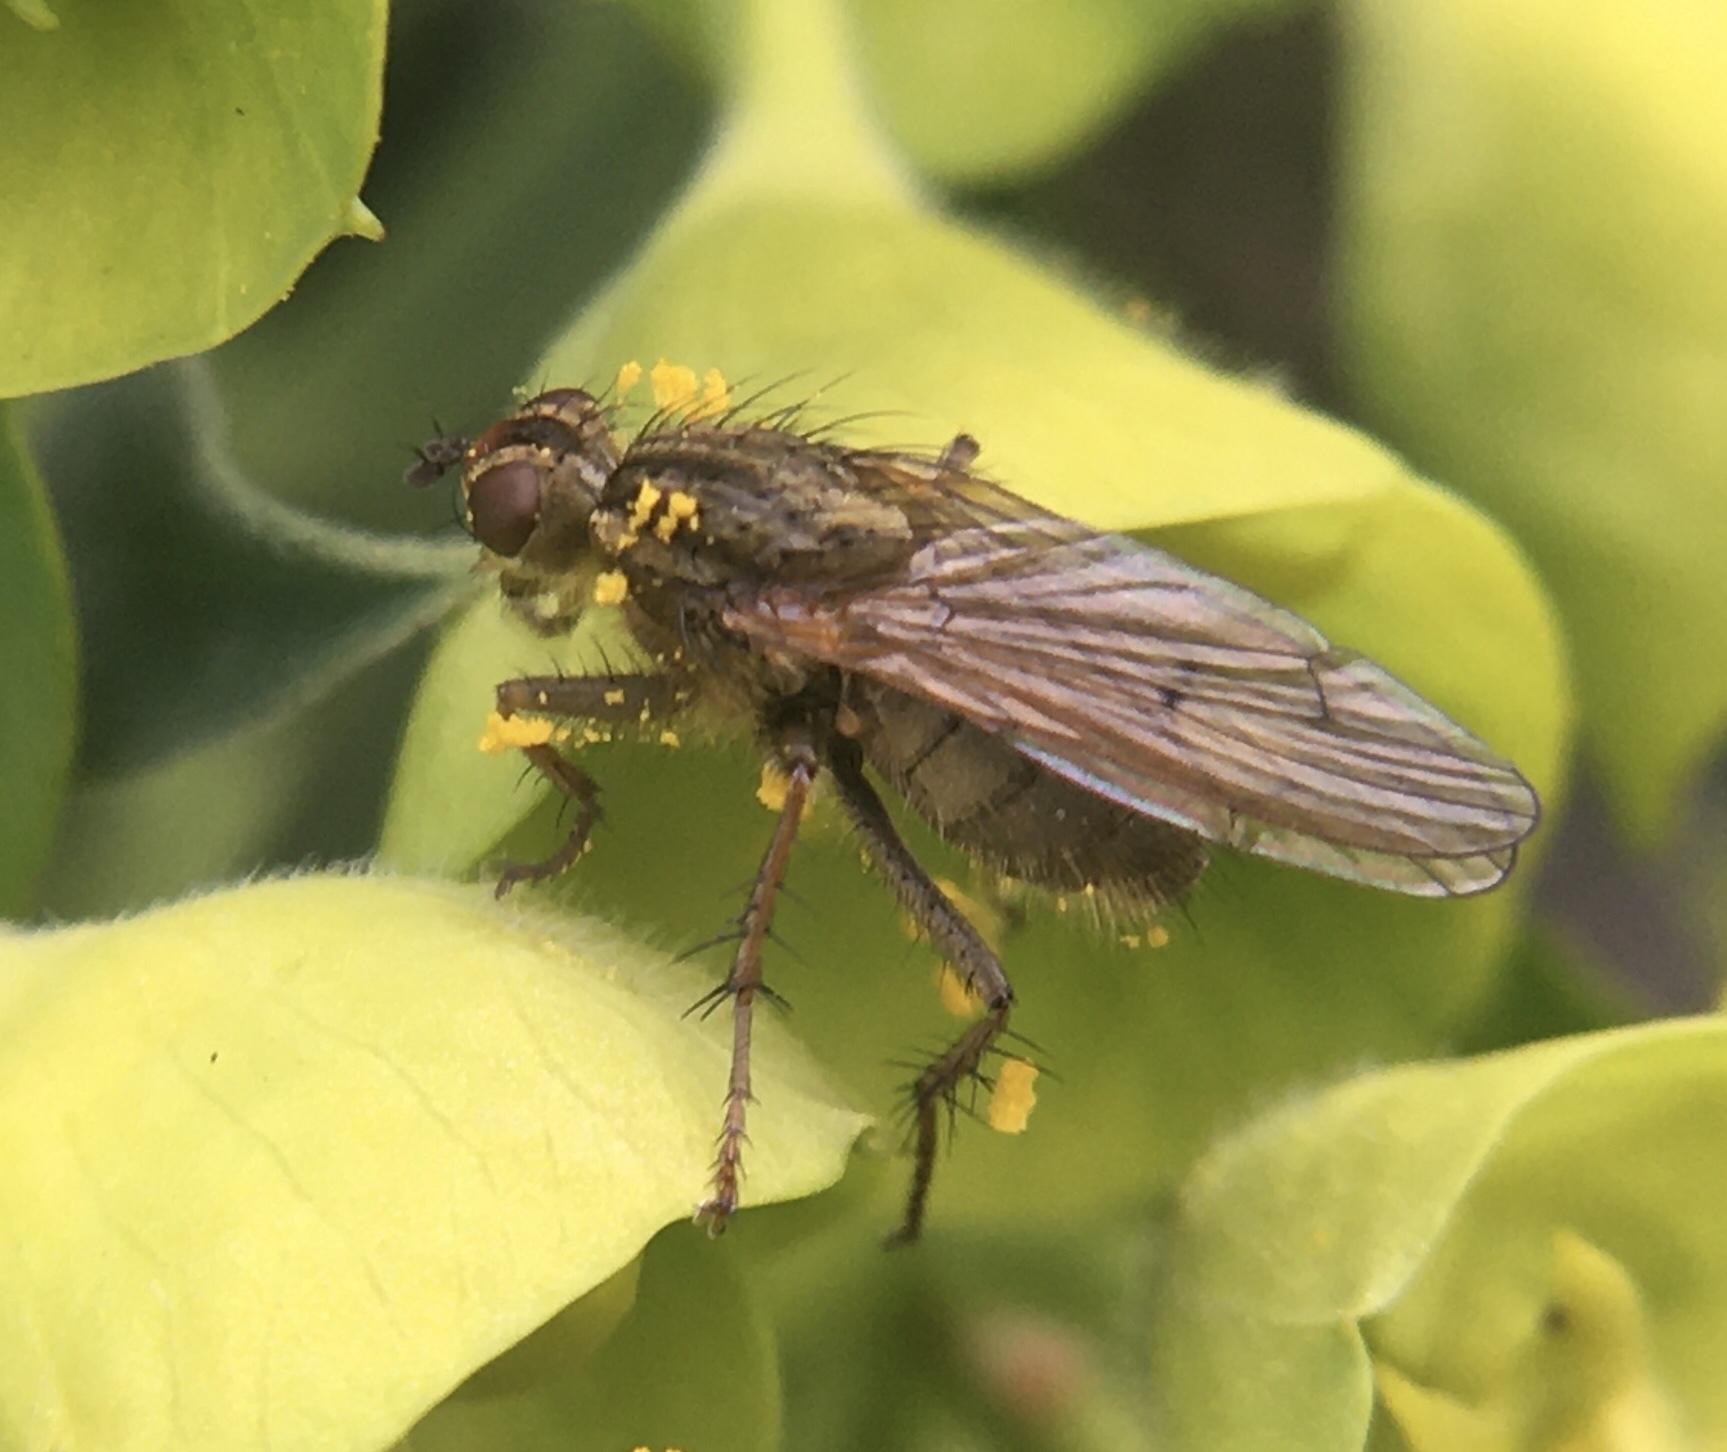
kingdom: Animalia
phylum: Arthropoda
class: Insecta
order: Diptera
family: Scathophagidae
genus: Scathophaga
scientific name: Scathophaga stercoraria
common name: Yellow dung fly
